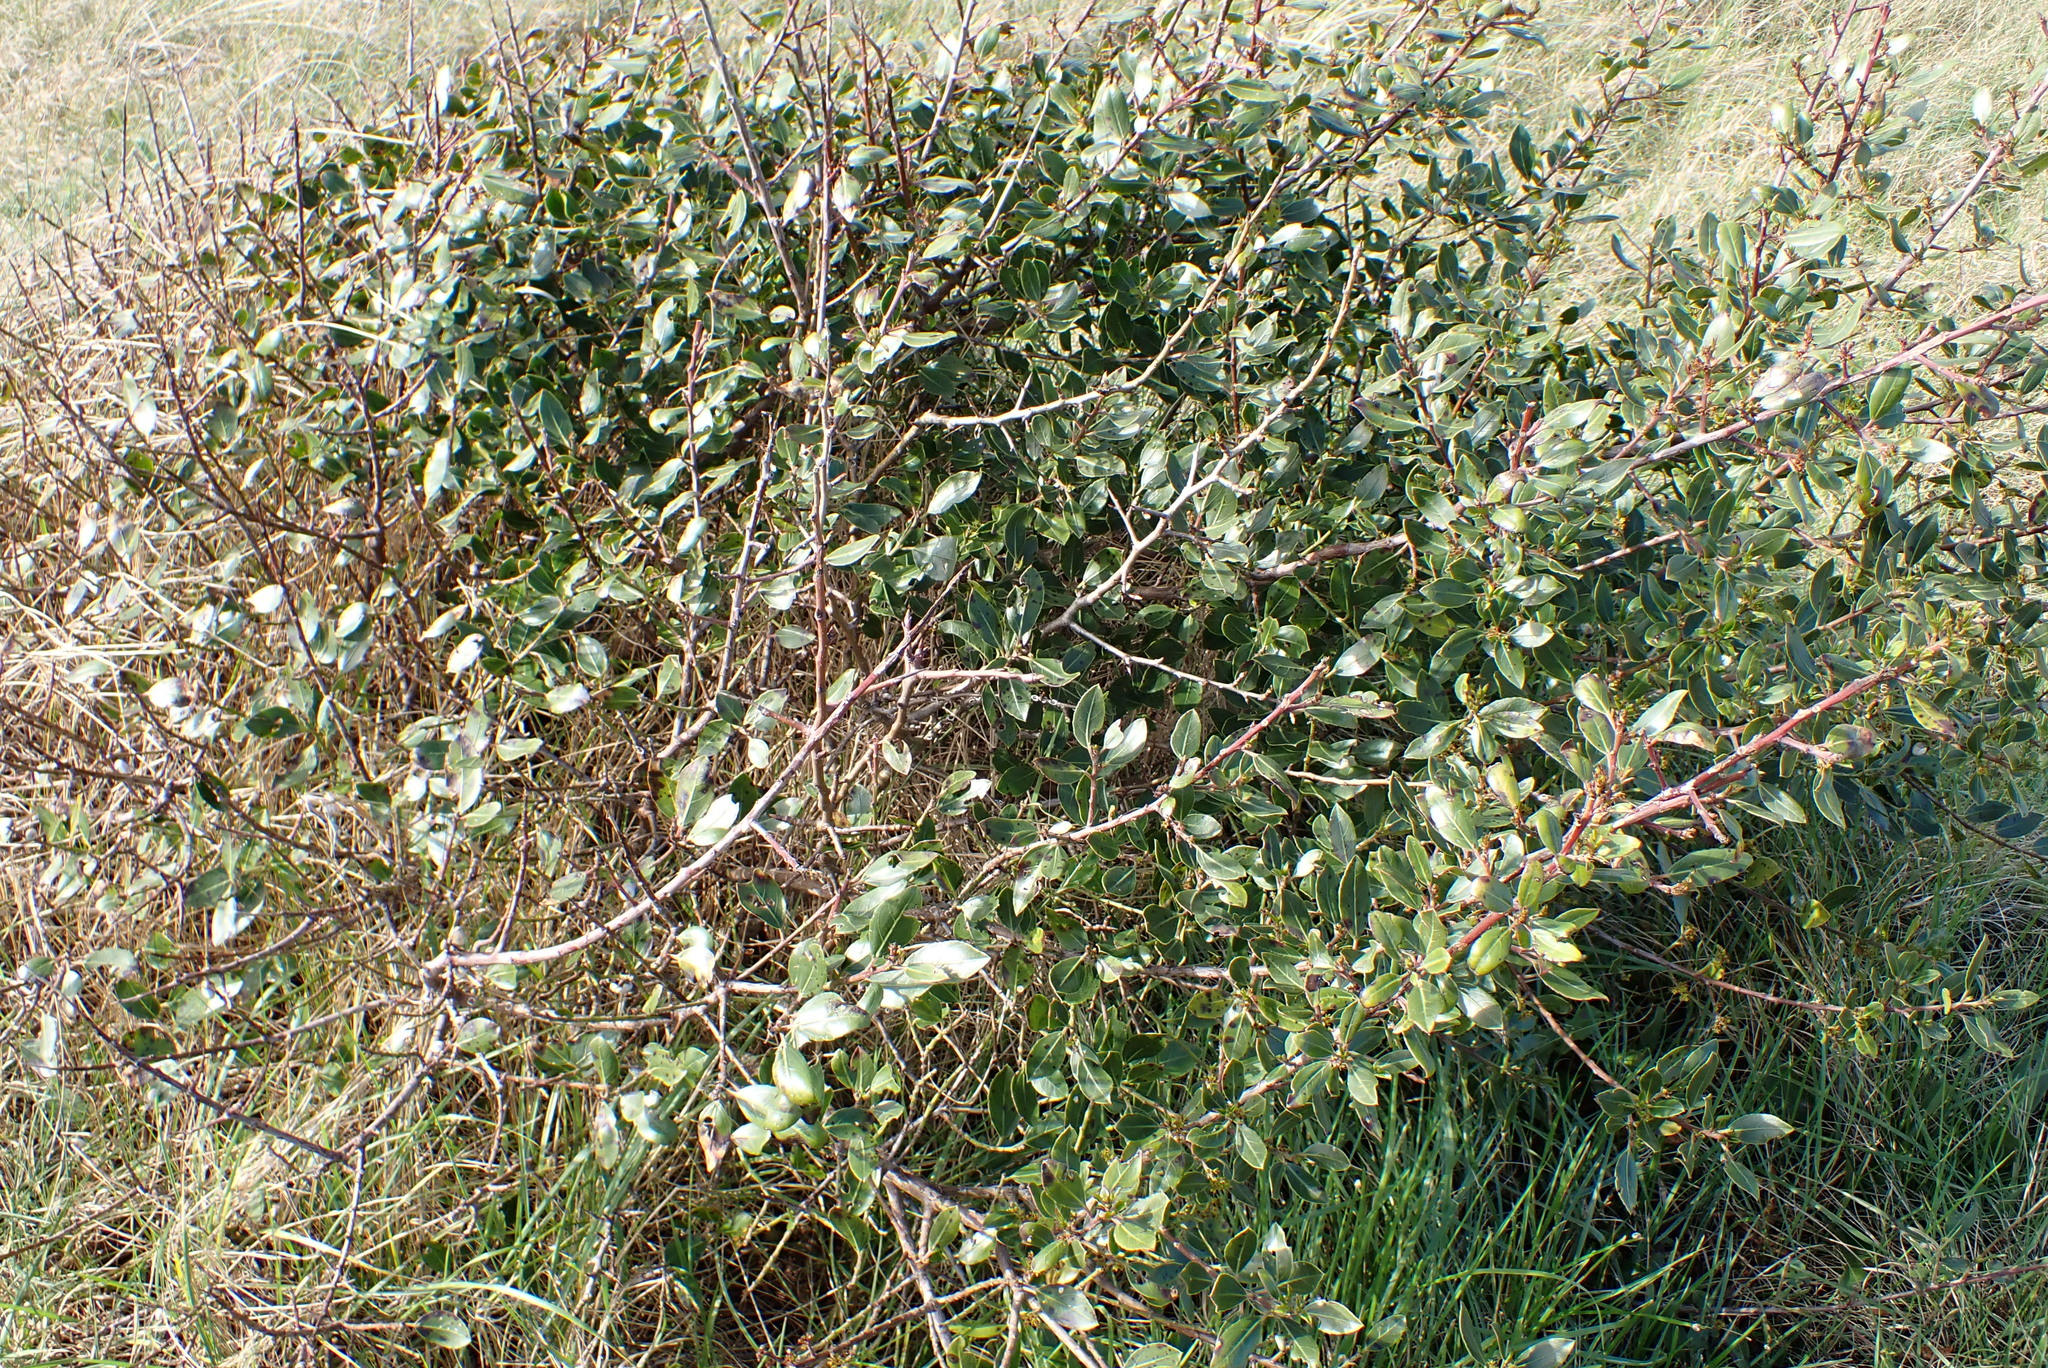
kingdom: Plantae
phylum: Tracheophyta
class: Magnoliopsida
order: Rosales
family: Rhamnaceae
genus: Rhamnus
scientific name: Rhamnus alaternus
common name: Mediterranean buckthorn
